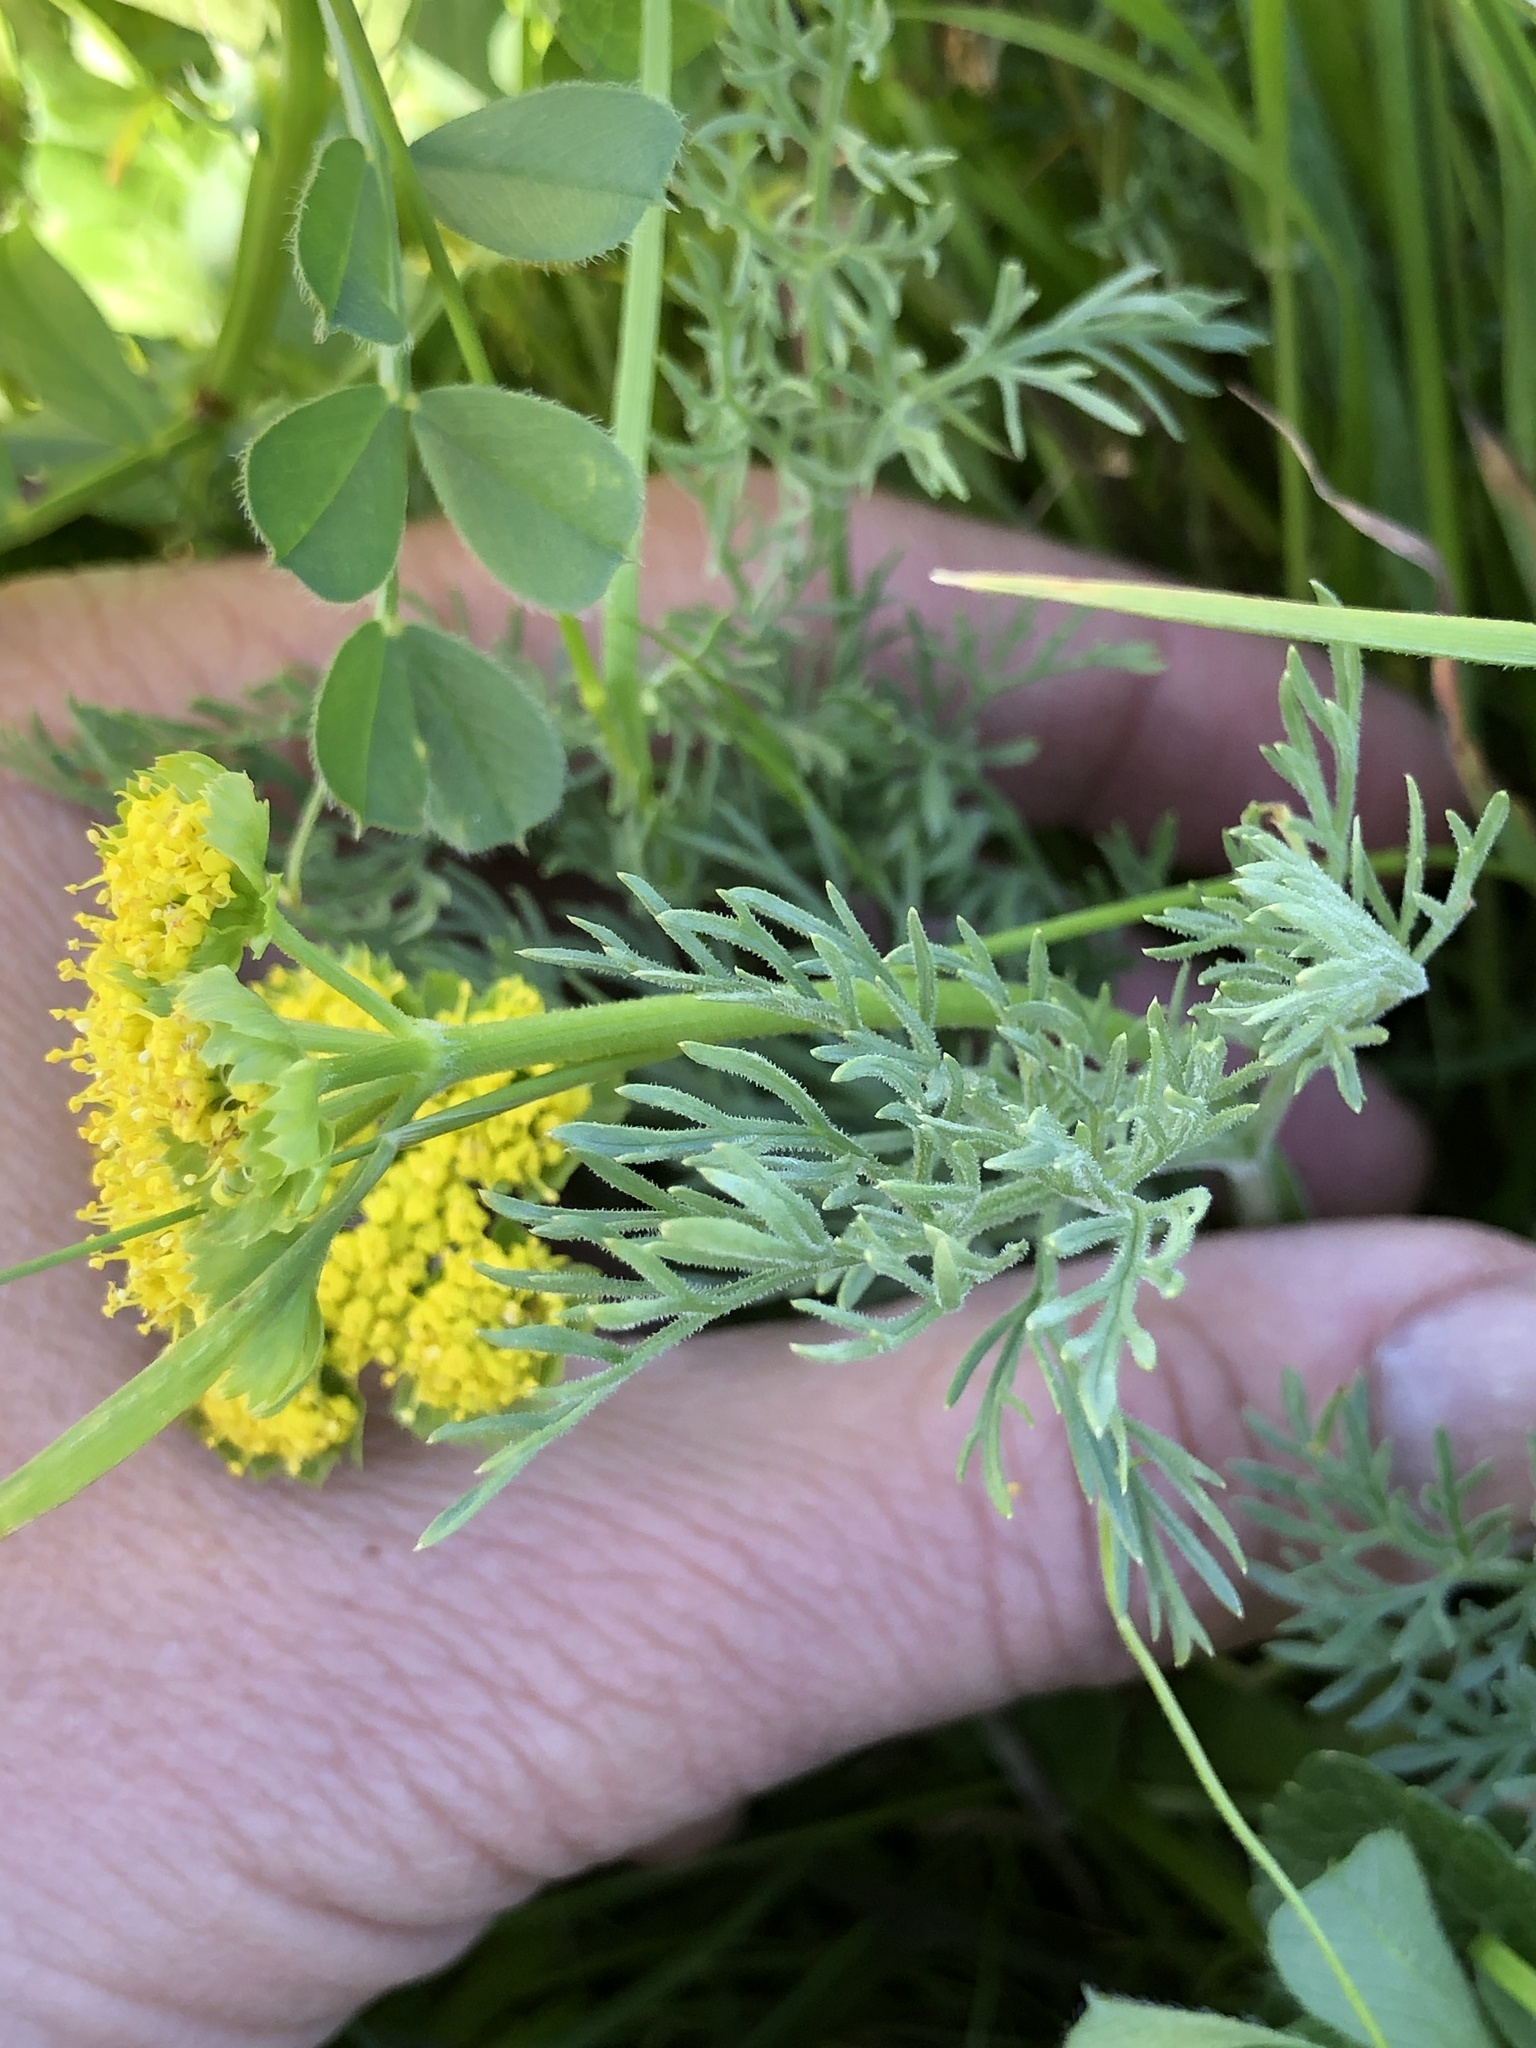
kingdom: Plantae
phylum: Tracheophyta
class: Magnoliopsida
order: Apiales
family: Apiaceae
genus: Lomatium
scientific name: Lomatium caruifolium
